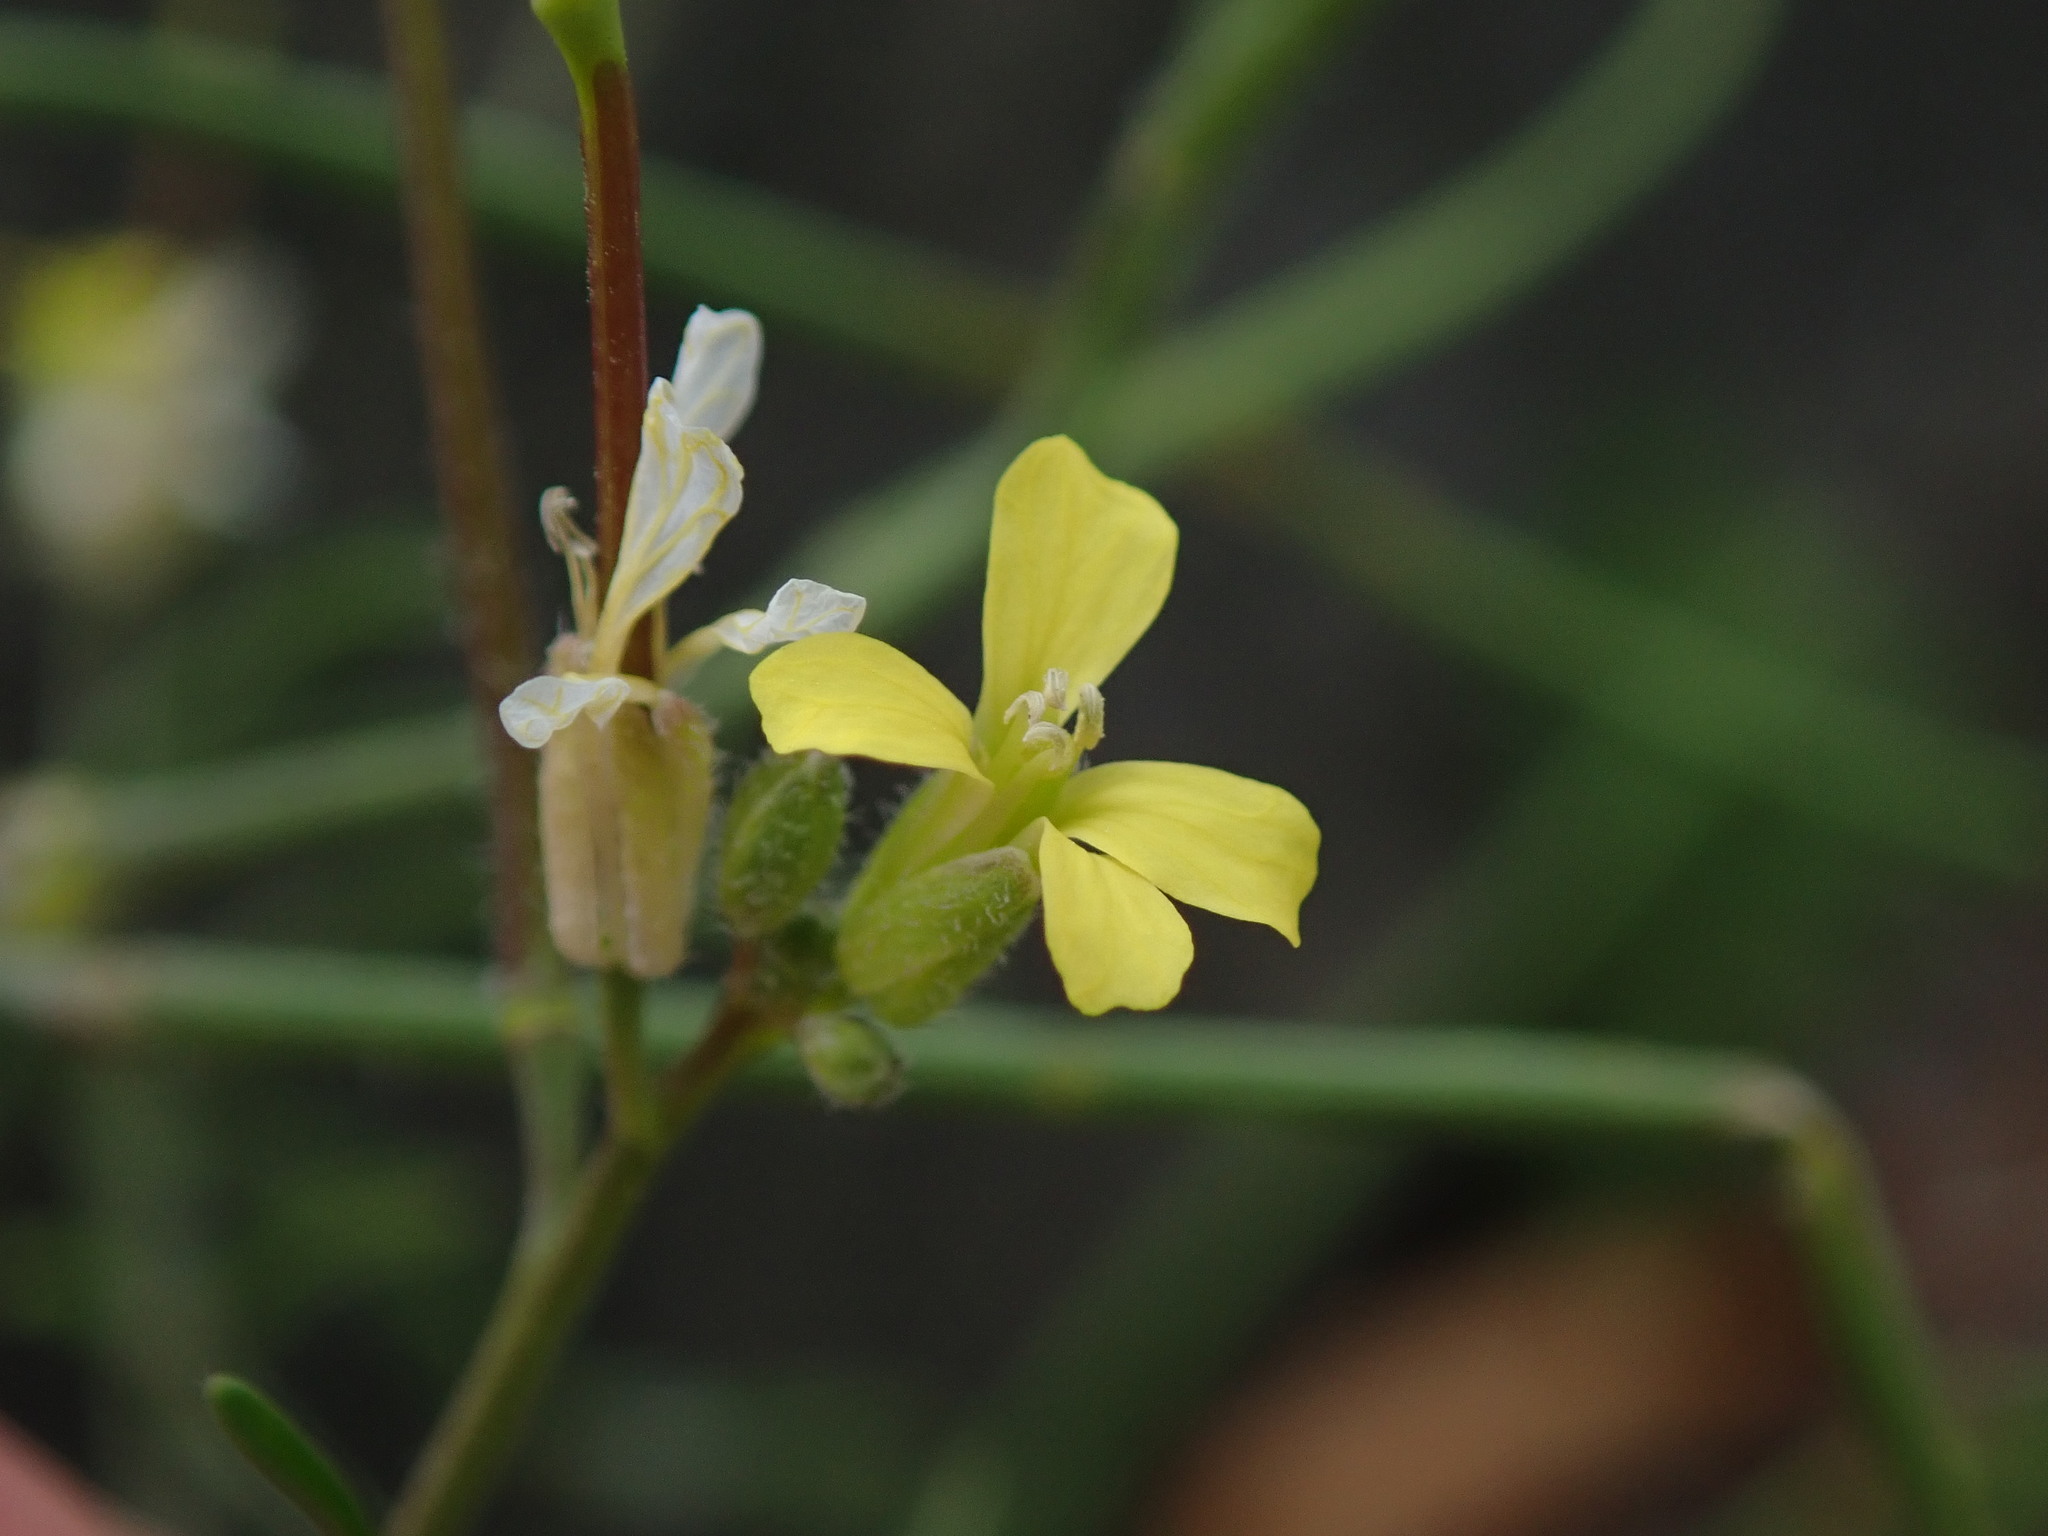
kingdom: Plantae
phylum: Tracheophyta
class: Magnoliopsida
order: Brassicales
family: Brassicaceae
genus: Sisymbrium
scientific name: Sisymbrium orientale
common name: Eastern rocket
